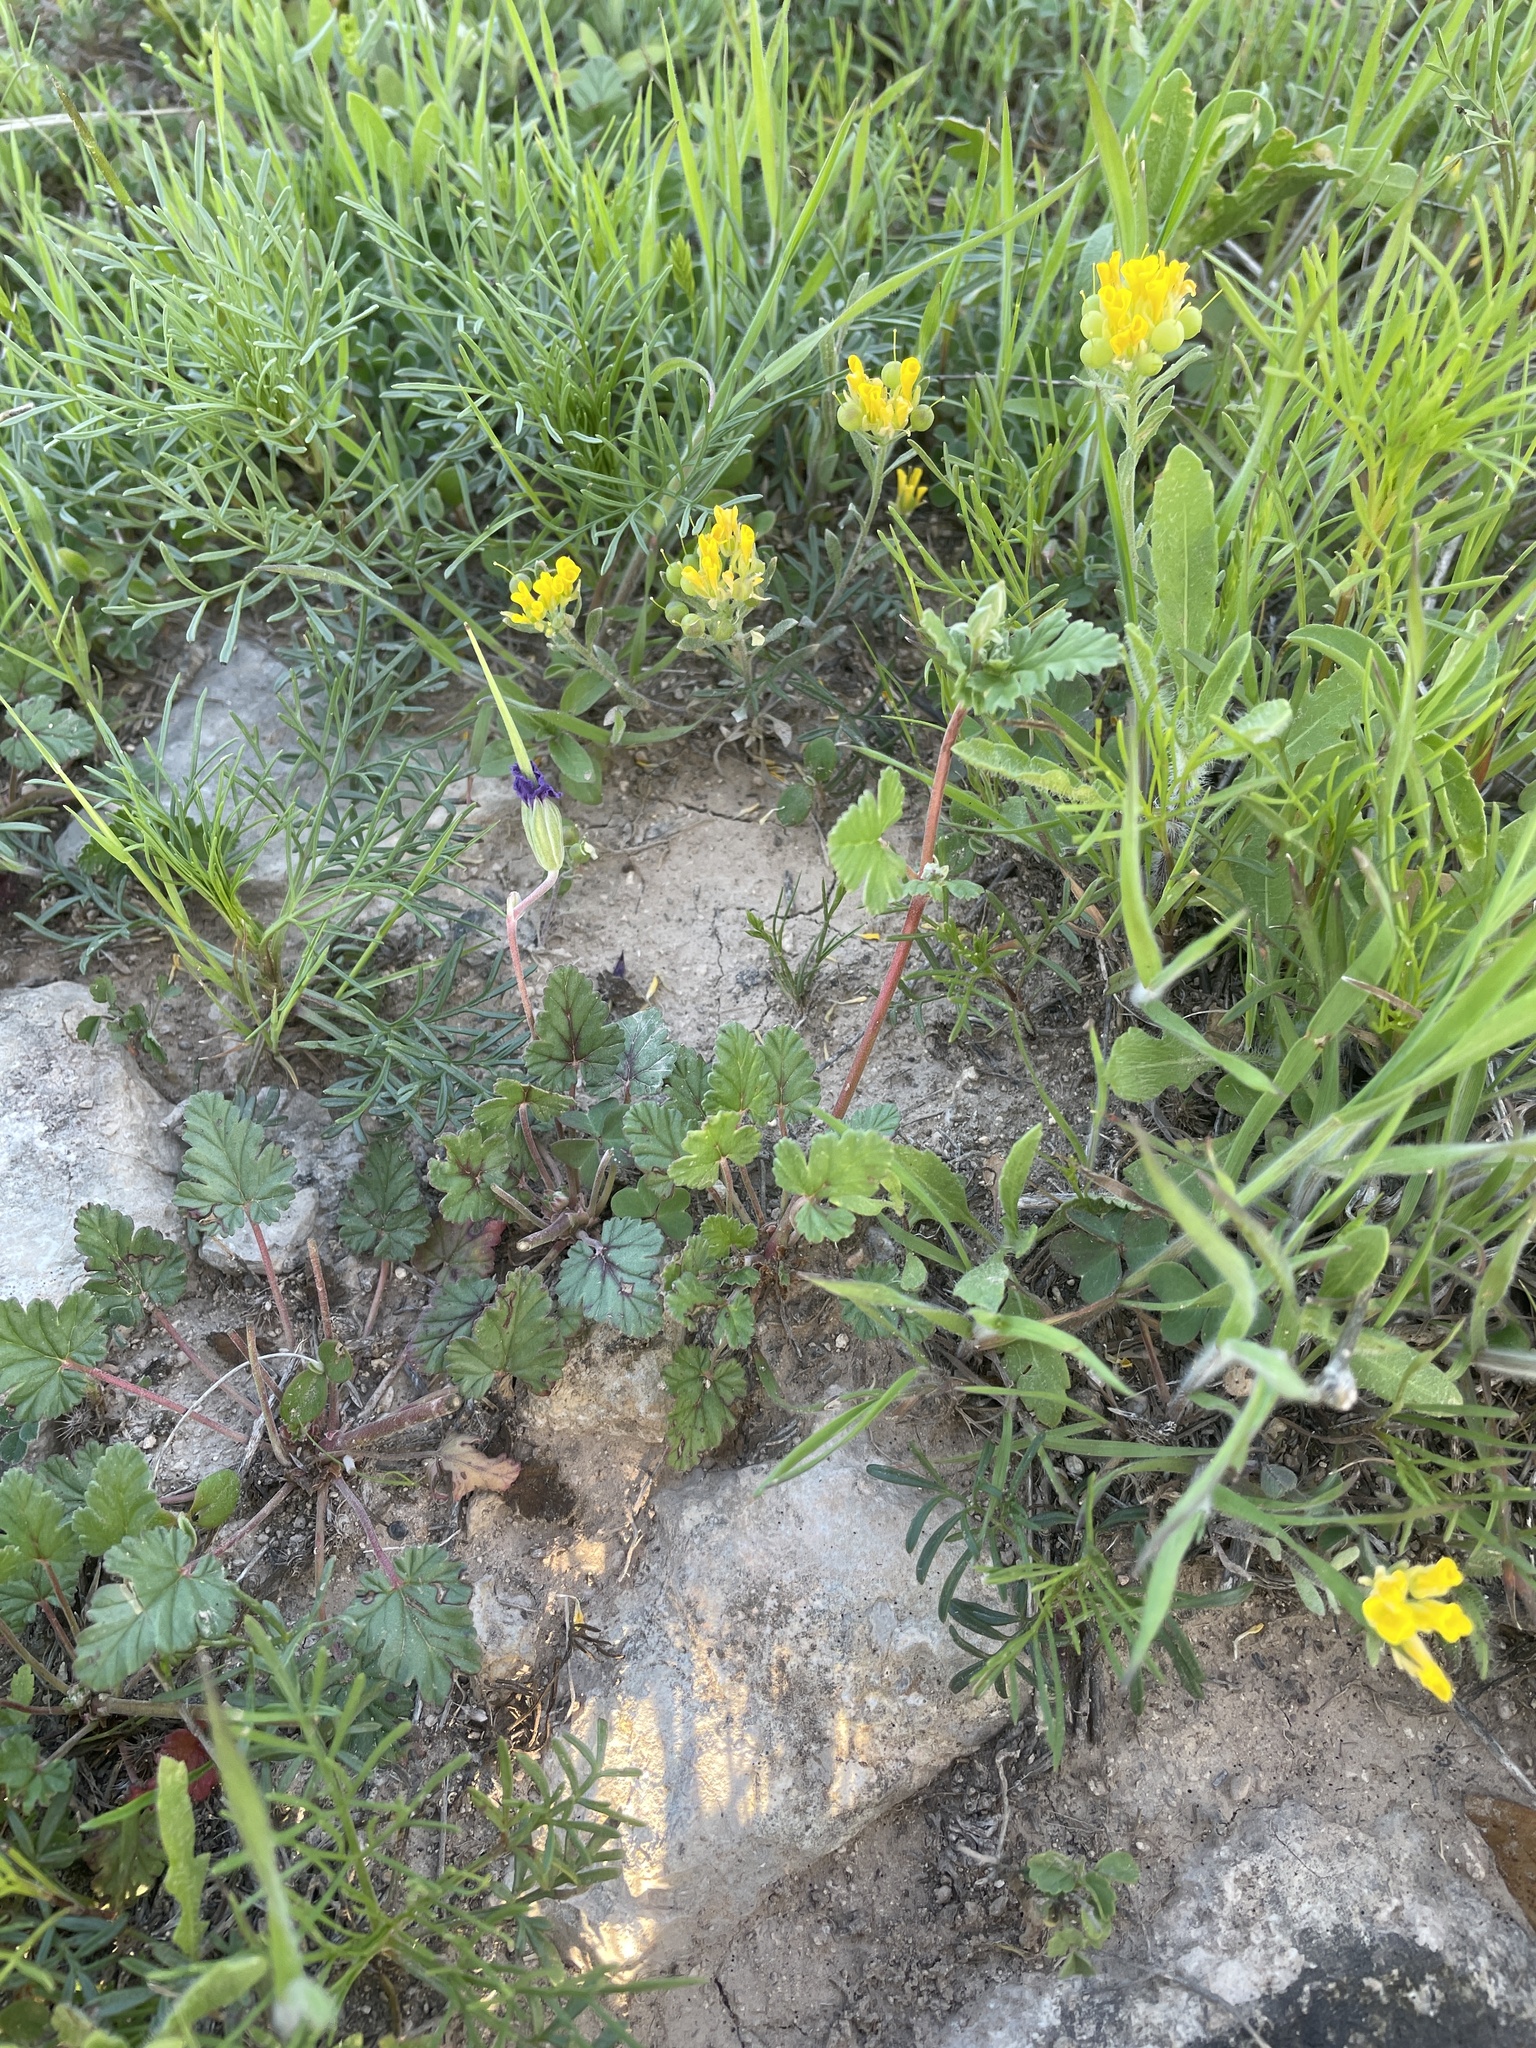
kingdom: Plantae
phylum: Tracheophyta
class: Magnoliopsida
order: Geraniales
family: Geraniaceae
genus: Erodium
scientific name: Erodium texanum
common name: Texas stork's-bill
